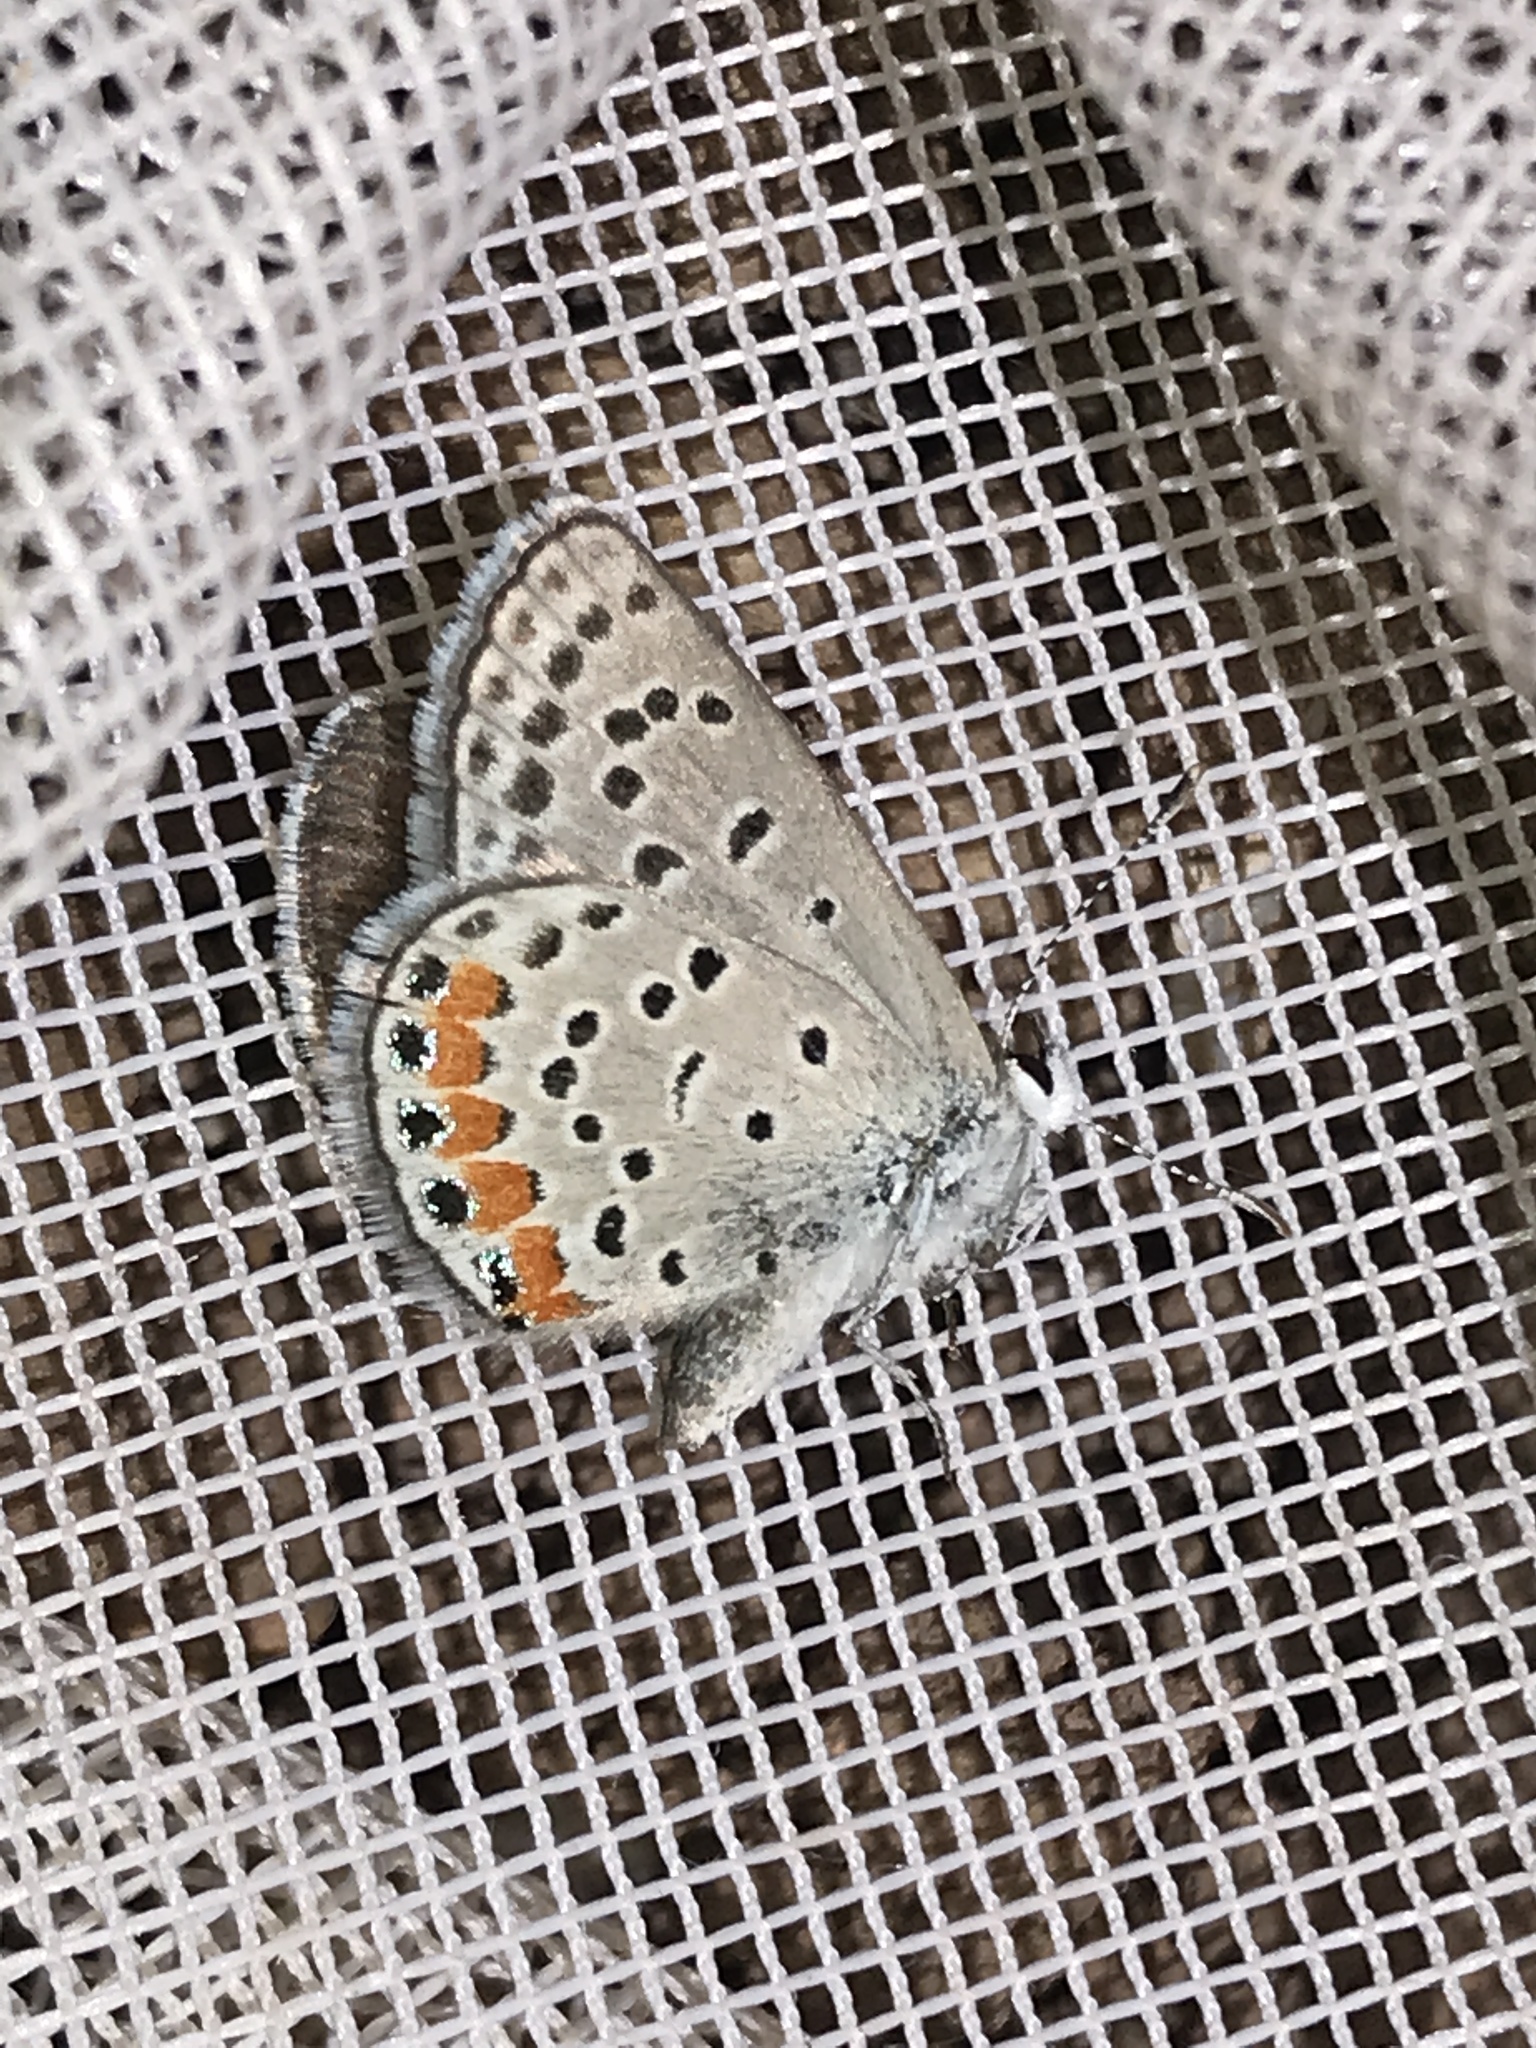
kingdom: Animalia
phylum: Arthropoda
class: Insecta
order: Lepidoptera
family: Lycaenidae
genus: Icaricia
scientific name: Icaricia lupini
